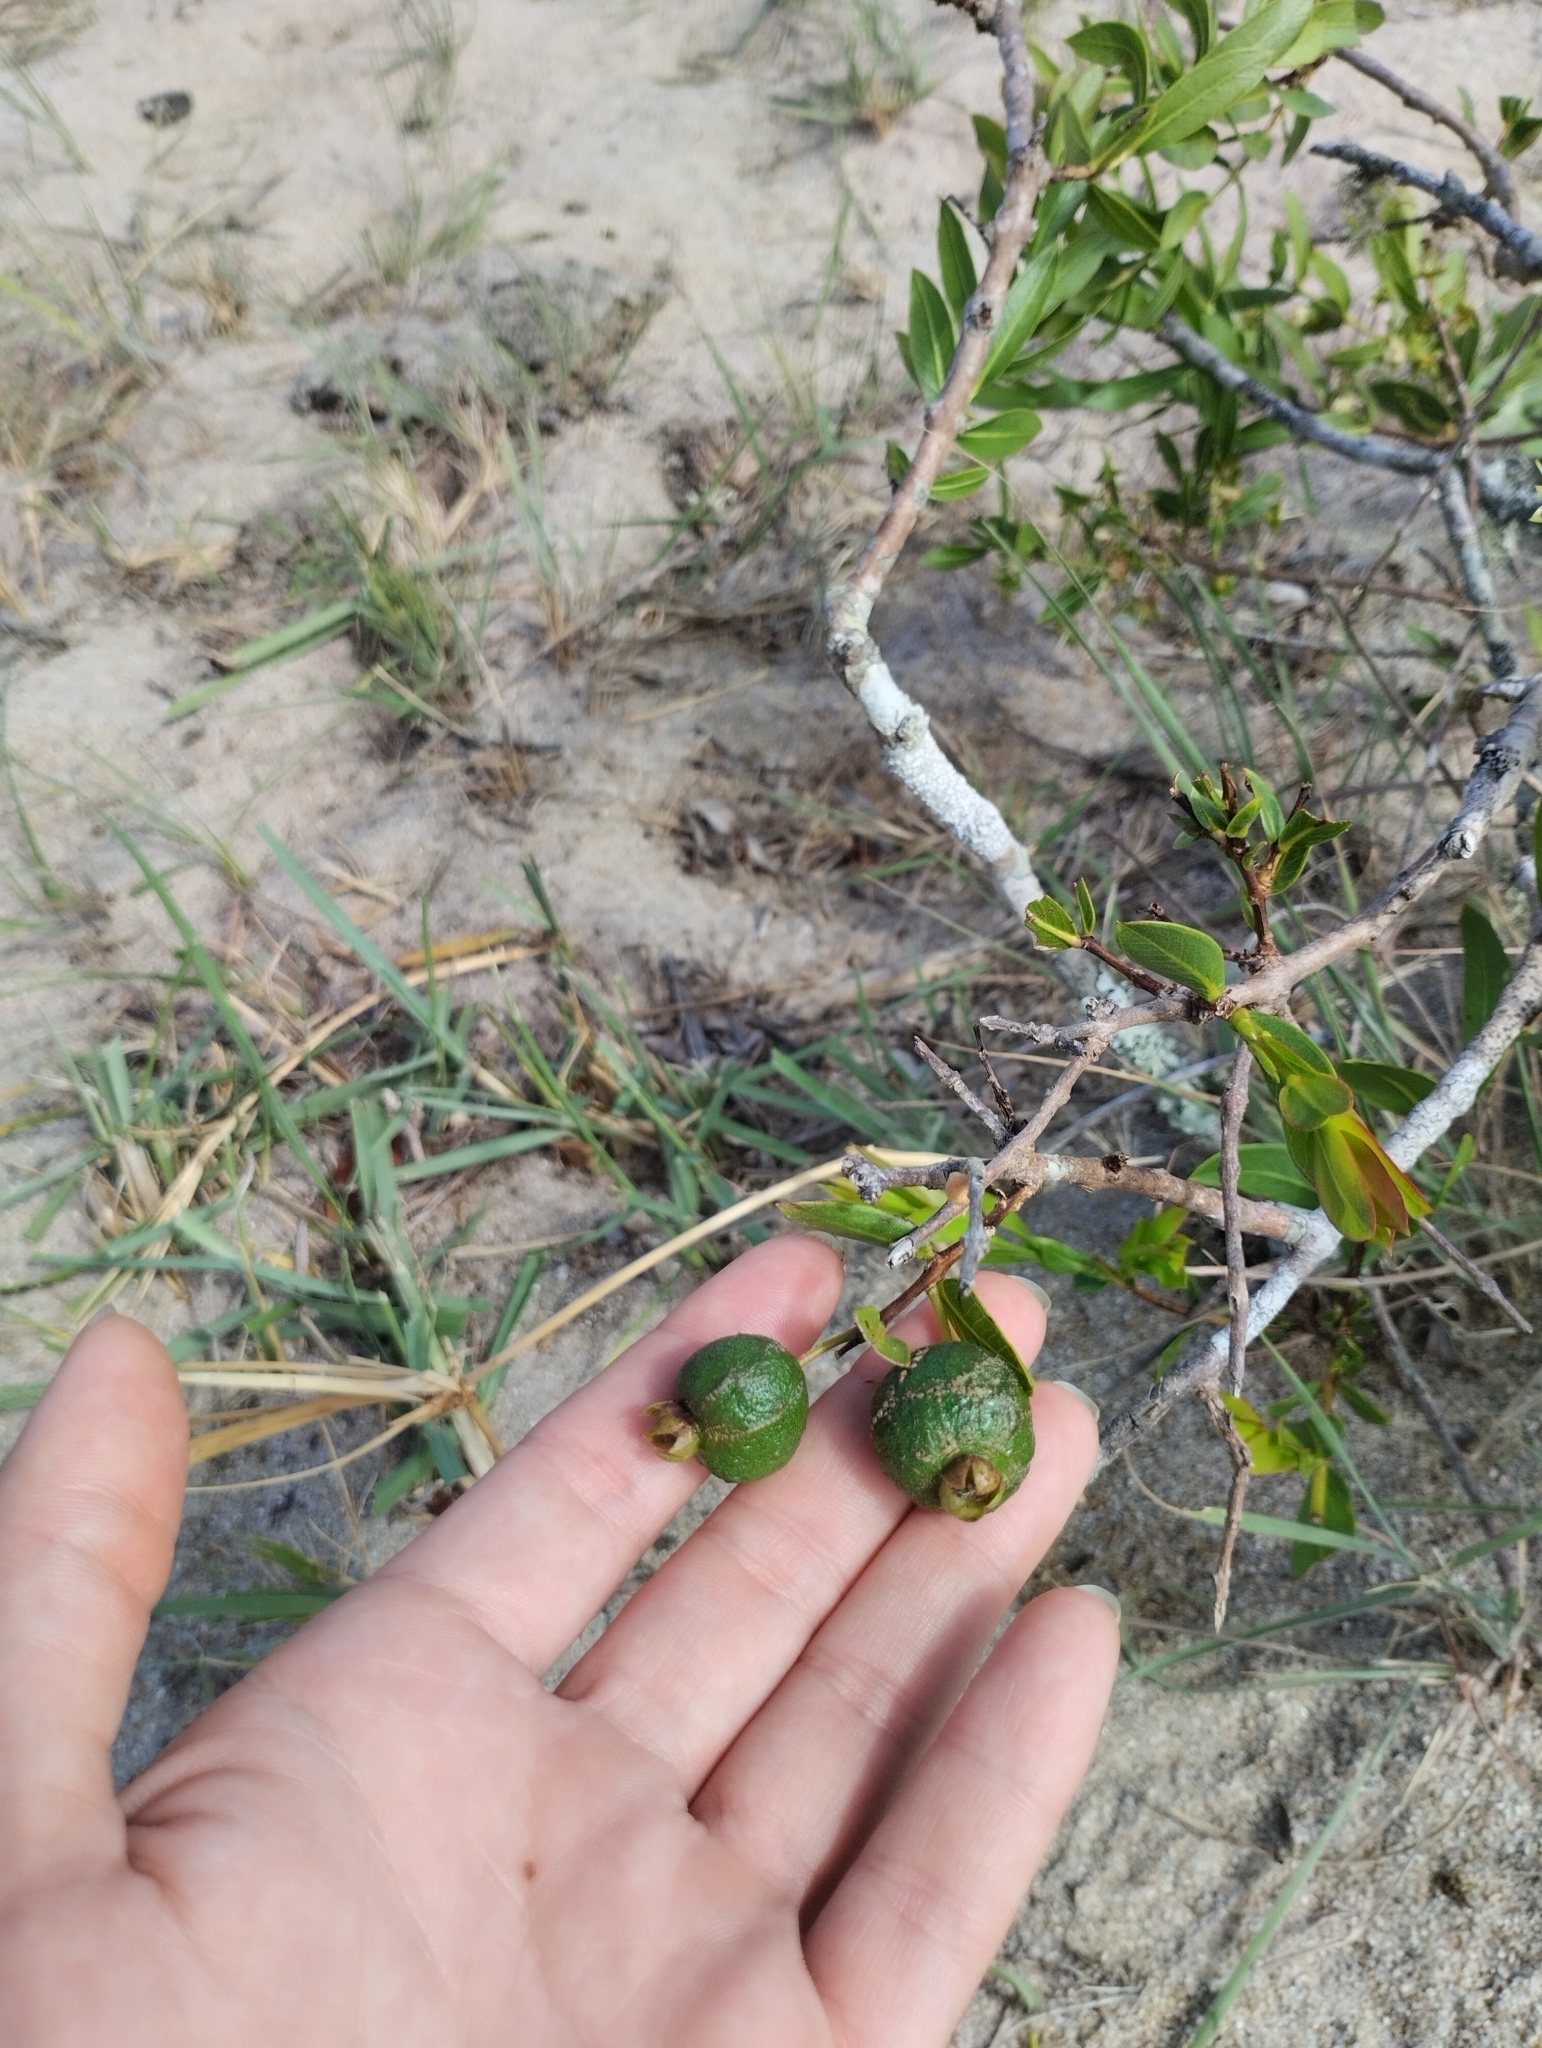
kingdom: Plantae
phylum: Tracheophyta
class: Magnoliopsida
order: Myrtales
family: Myrtaceae
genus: Psidium
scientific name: Psidium salutare
